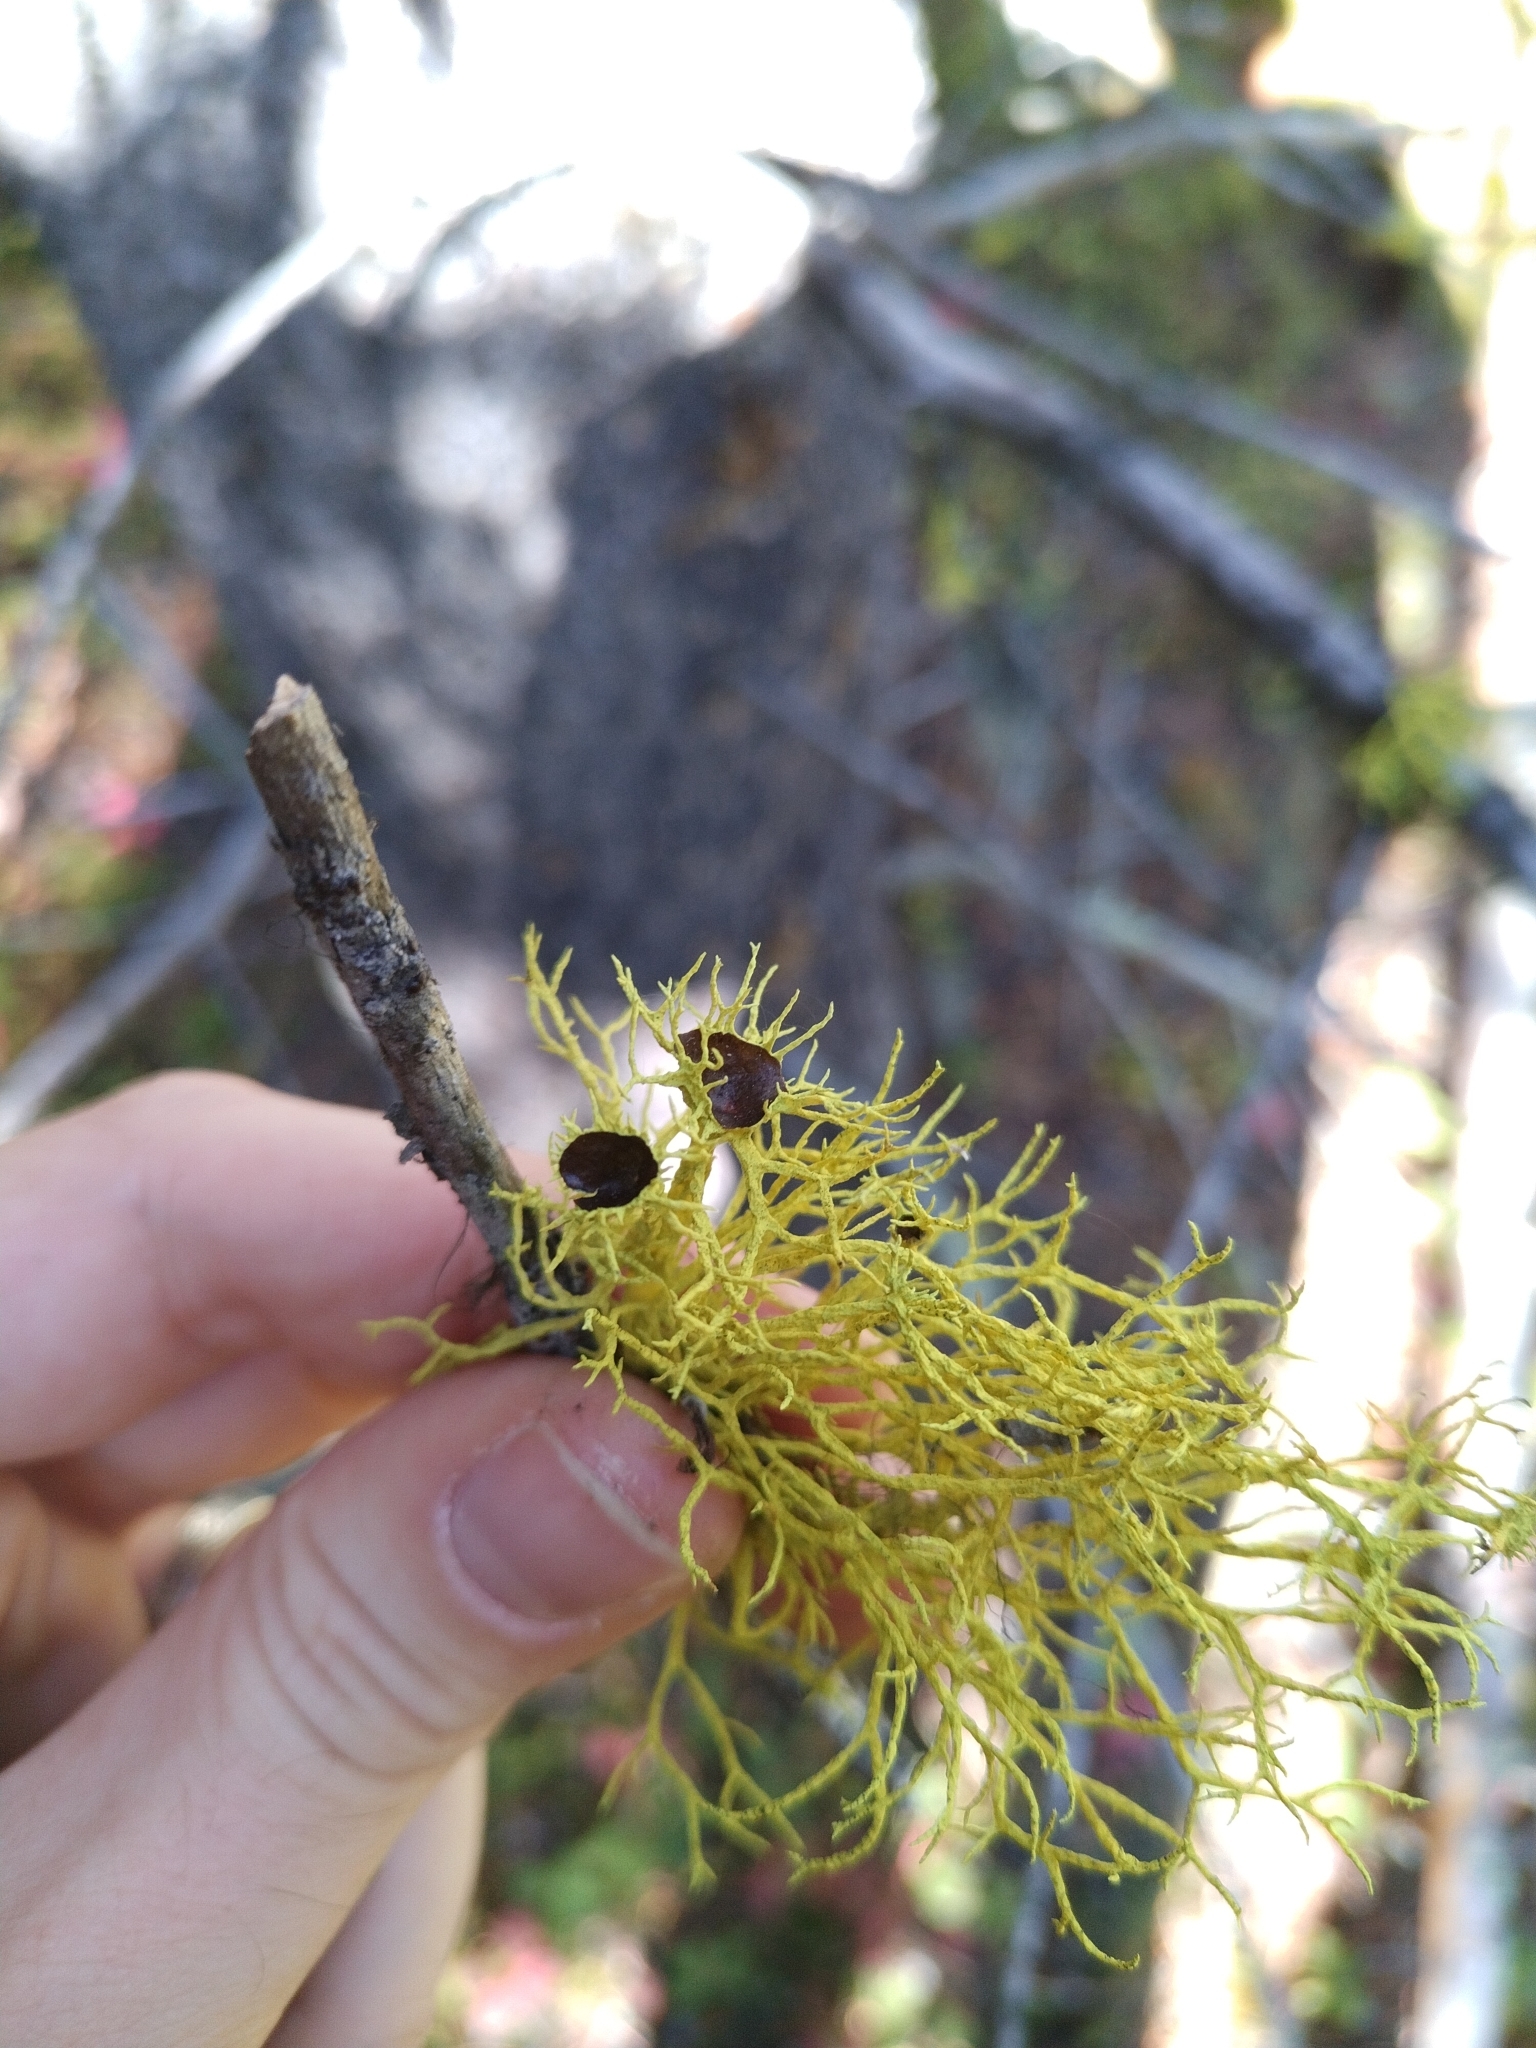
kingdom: Fungi
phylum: Ascomycota
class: Lecanoromycetes
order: Lecanorales
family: Parmeliaceae
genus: Letharia
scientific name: Letharia columbiana
